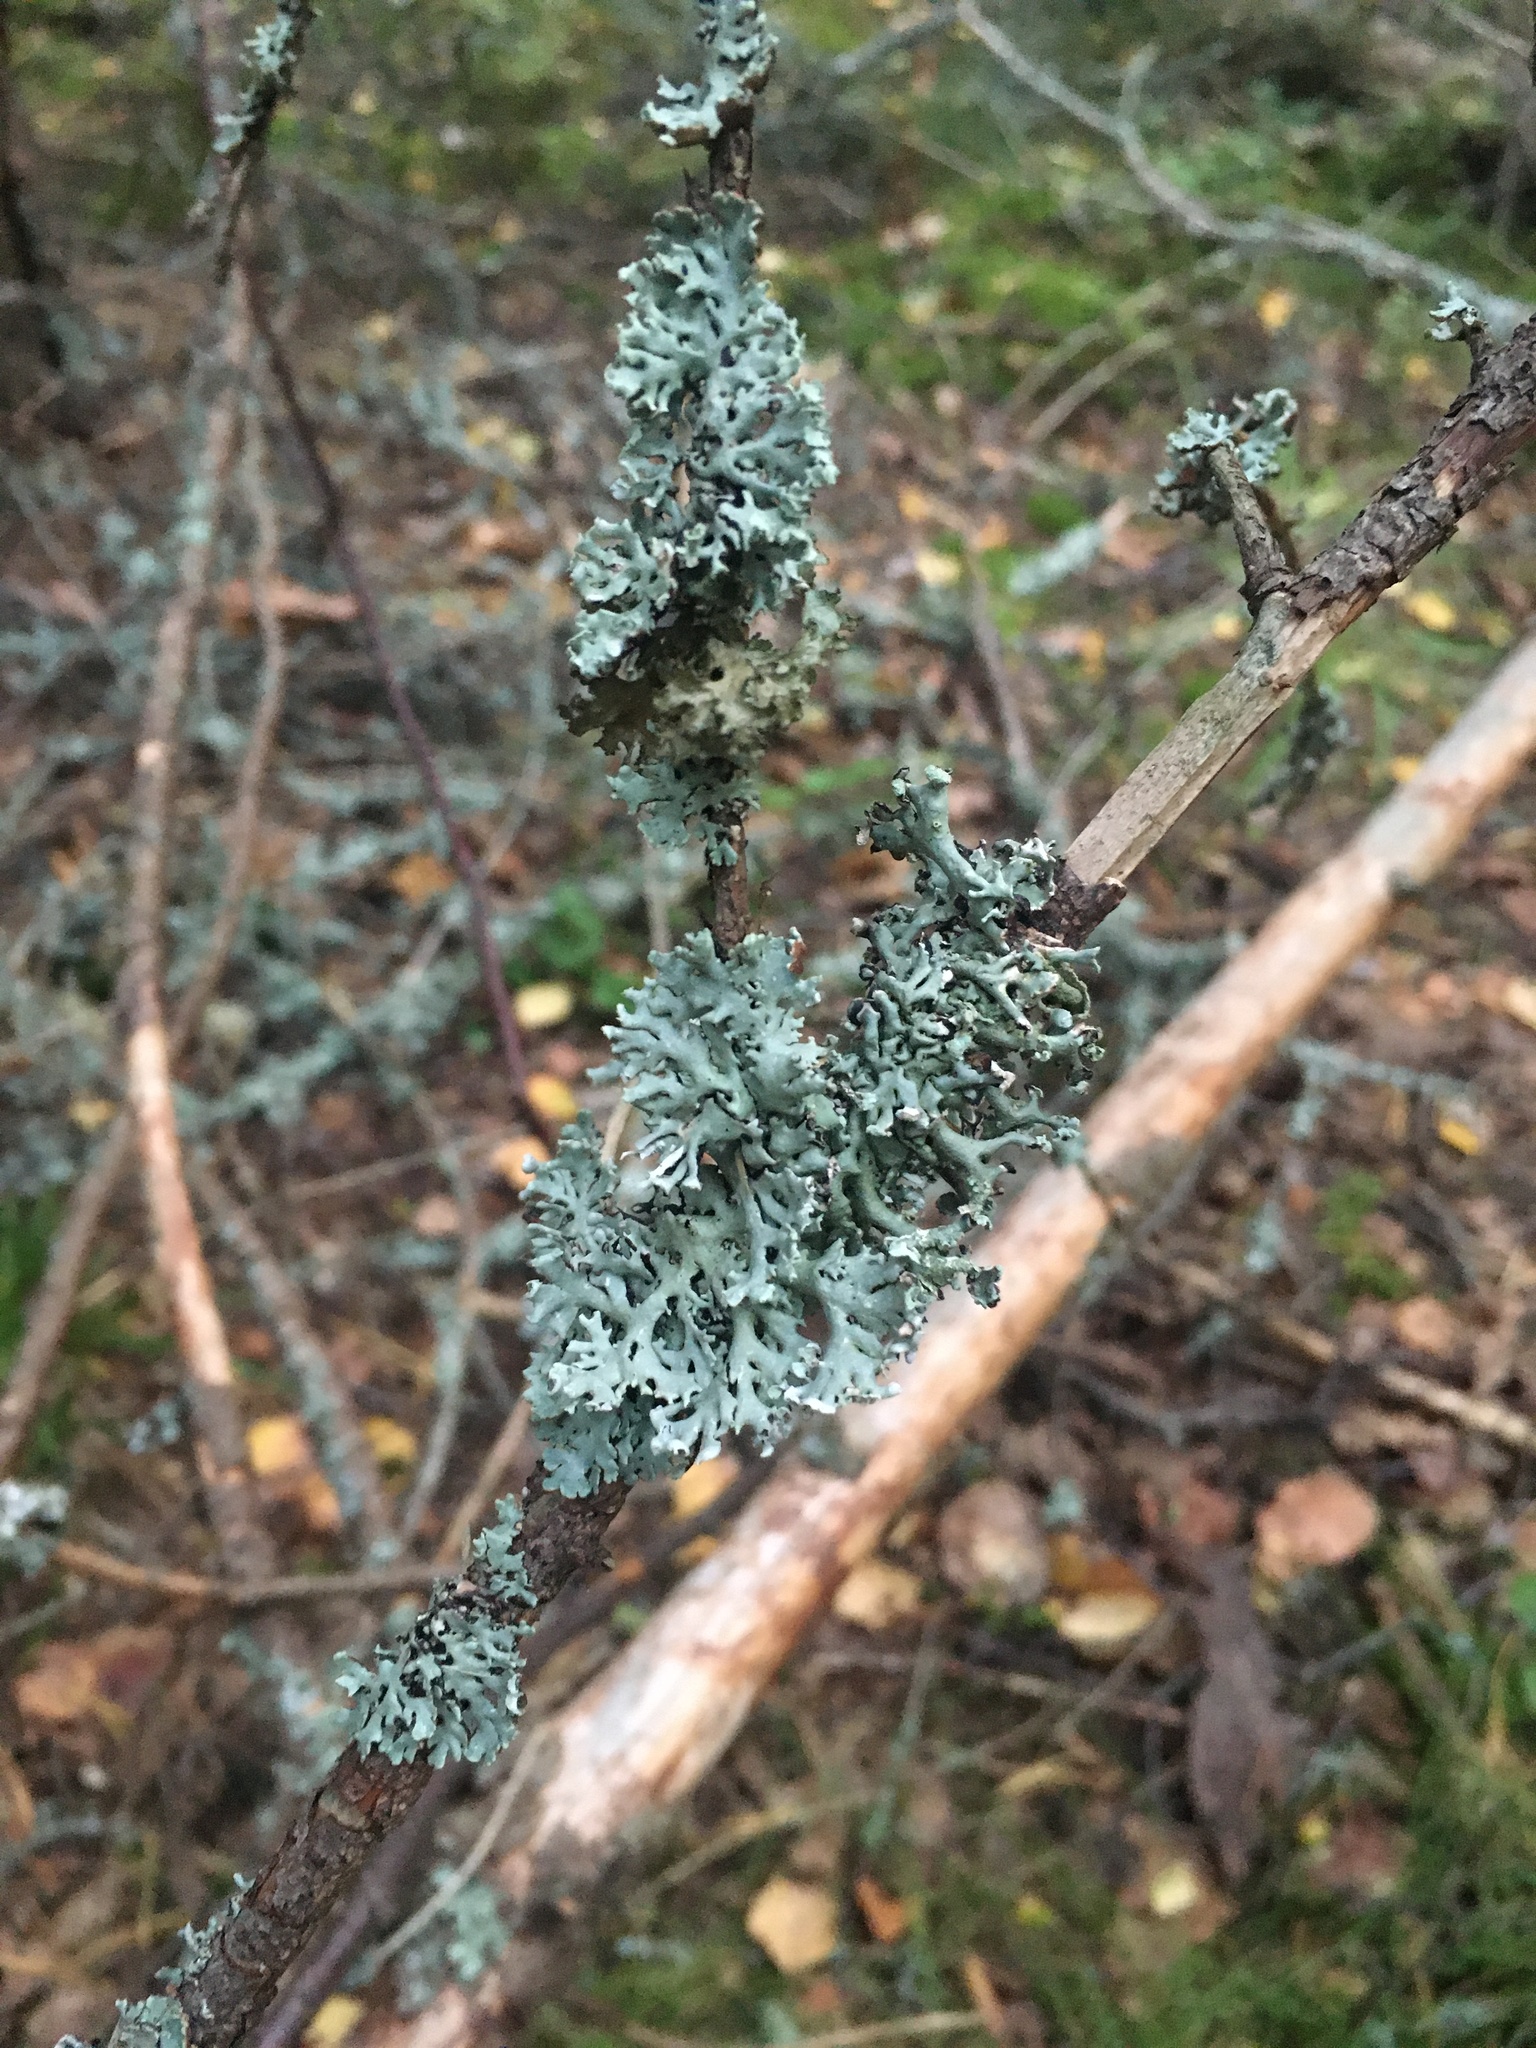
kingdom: Fungi
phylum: Ascomycota
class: Lecanoromycetes
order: Lecanorales
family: Parmeliaceae
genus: Hypogymnia
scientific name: Hypogymnia physodes
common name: Dark crottle
